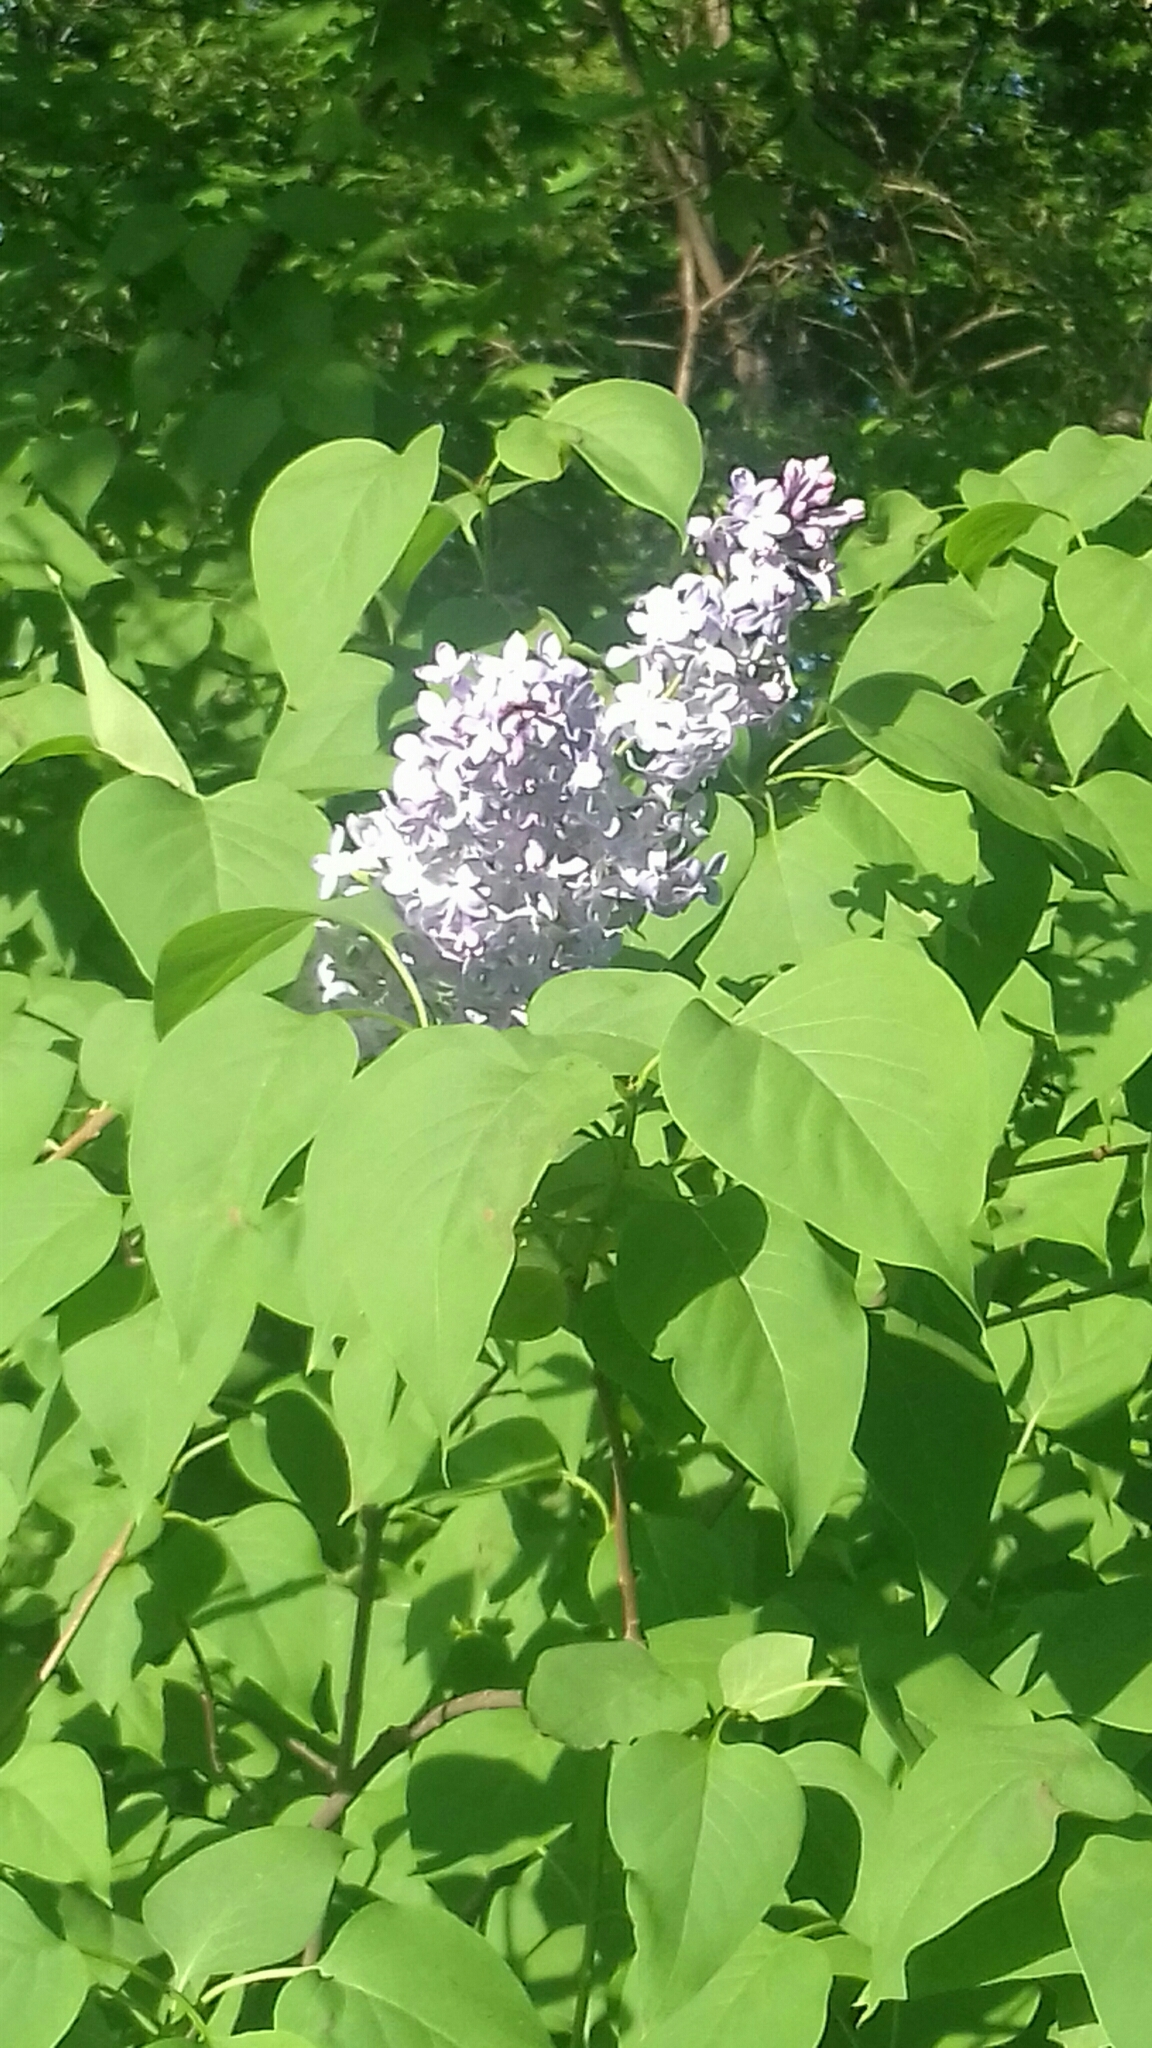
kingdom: Plantae
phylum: Tracheophyta
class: Magnoliopsida
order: Lamiales
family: Oleaceae
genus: Syringa
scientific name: Syringa vulgaris
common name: Common lilac
